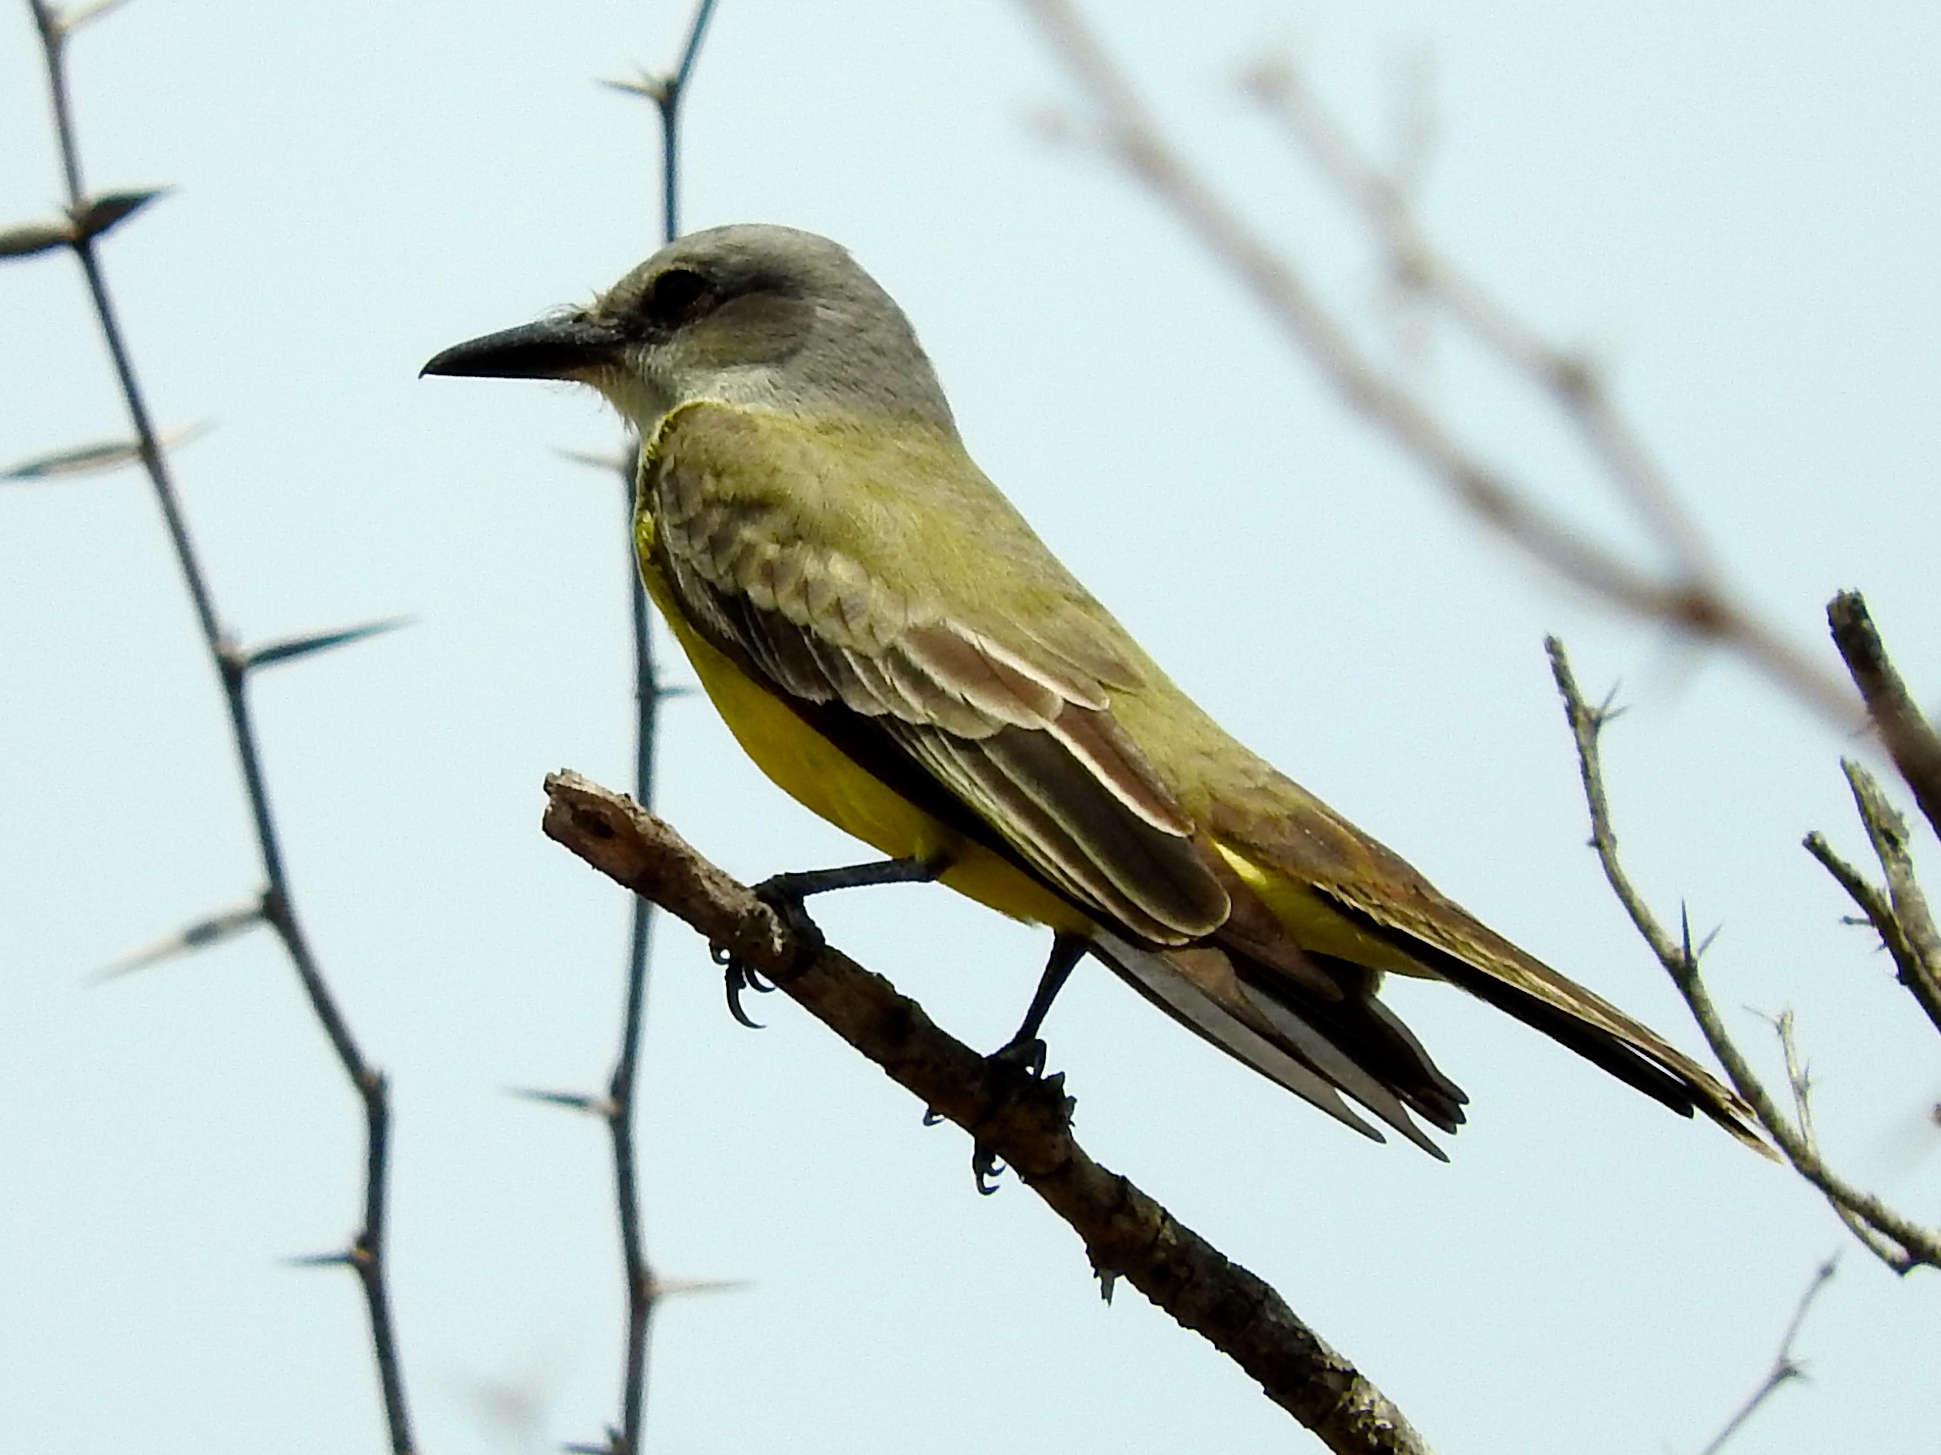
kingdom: Animalia
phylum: Chordata
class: Aves
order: Passeriformes
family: Tyrannidae
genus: Tyrannus
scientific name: Tyrannus melancholicus
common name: Tropical kingbird
